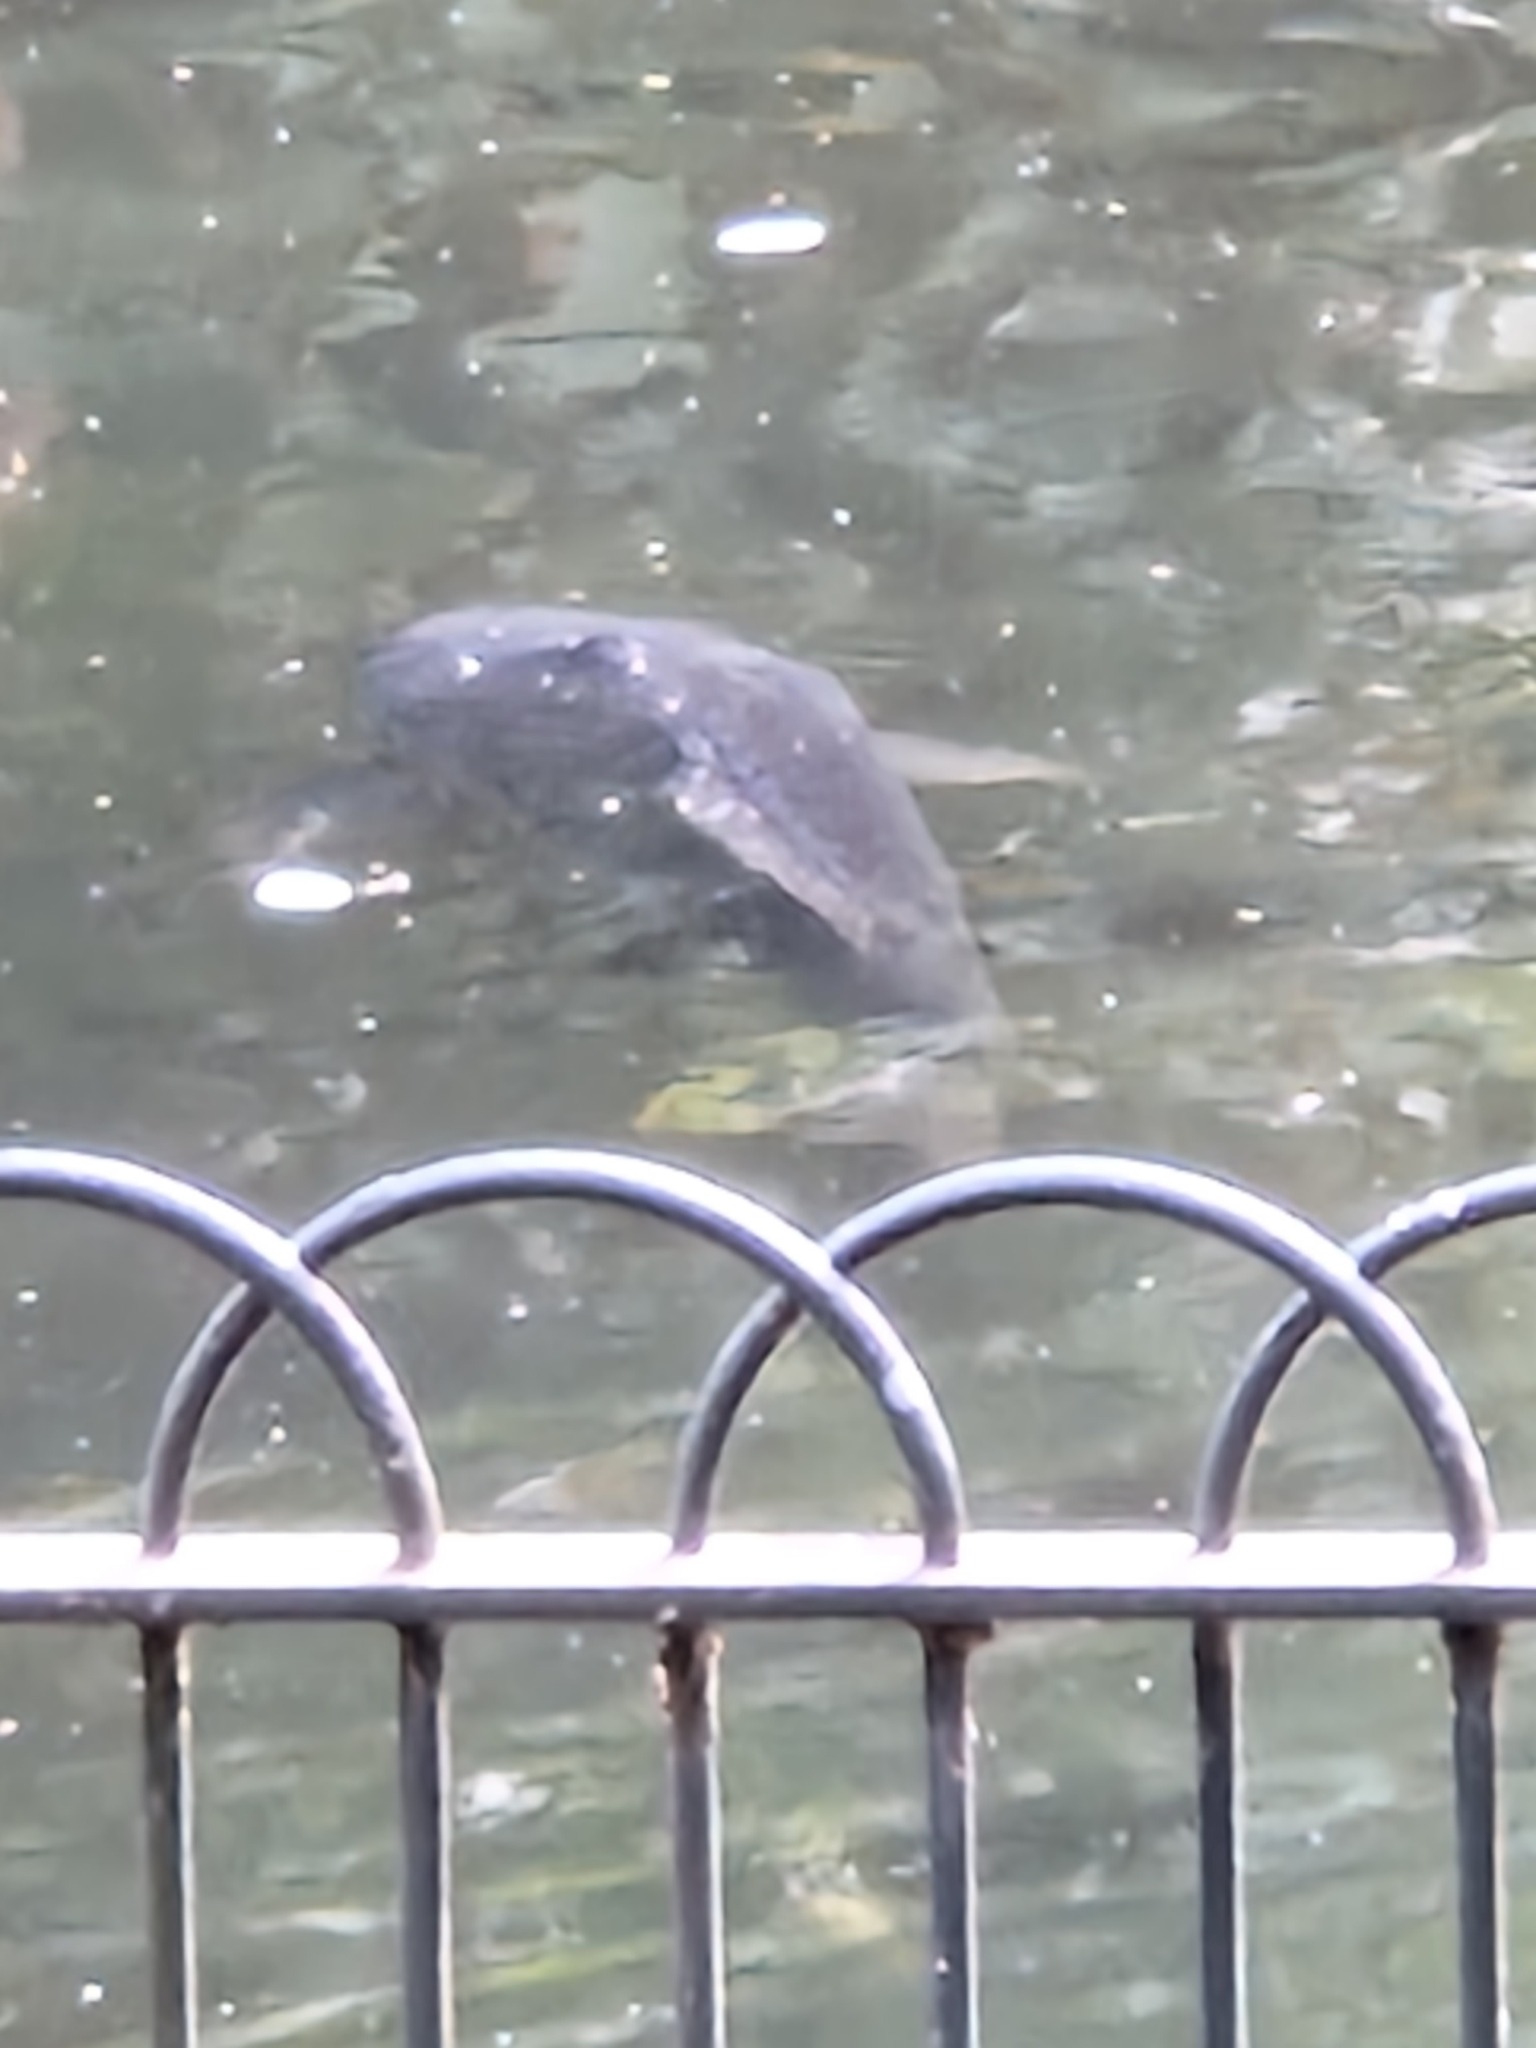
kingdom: Animalia
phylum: Chordata
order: Cypriniformes
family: Cyprinidae
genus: Cyprinus
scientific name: Cyprinus carpio
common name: Common carp
